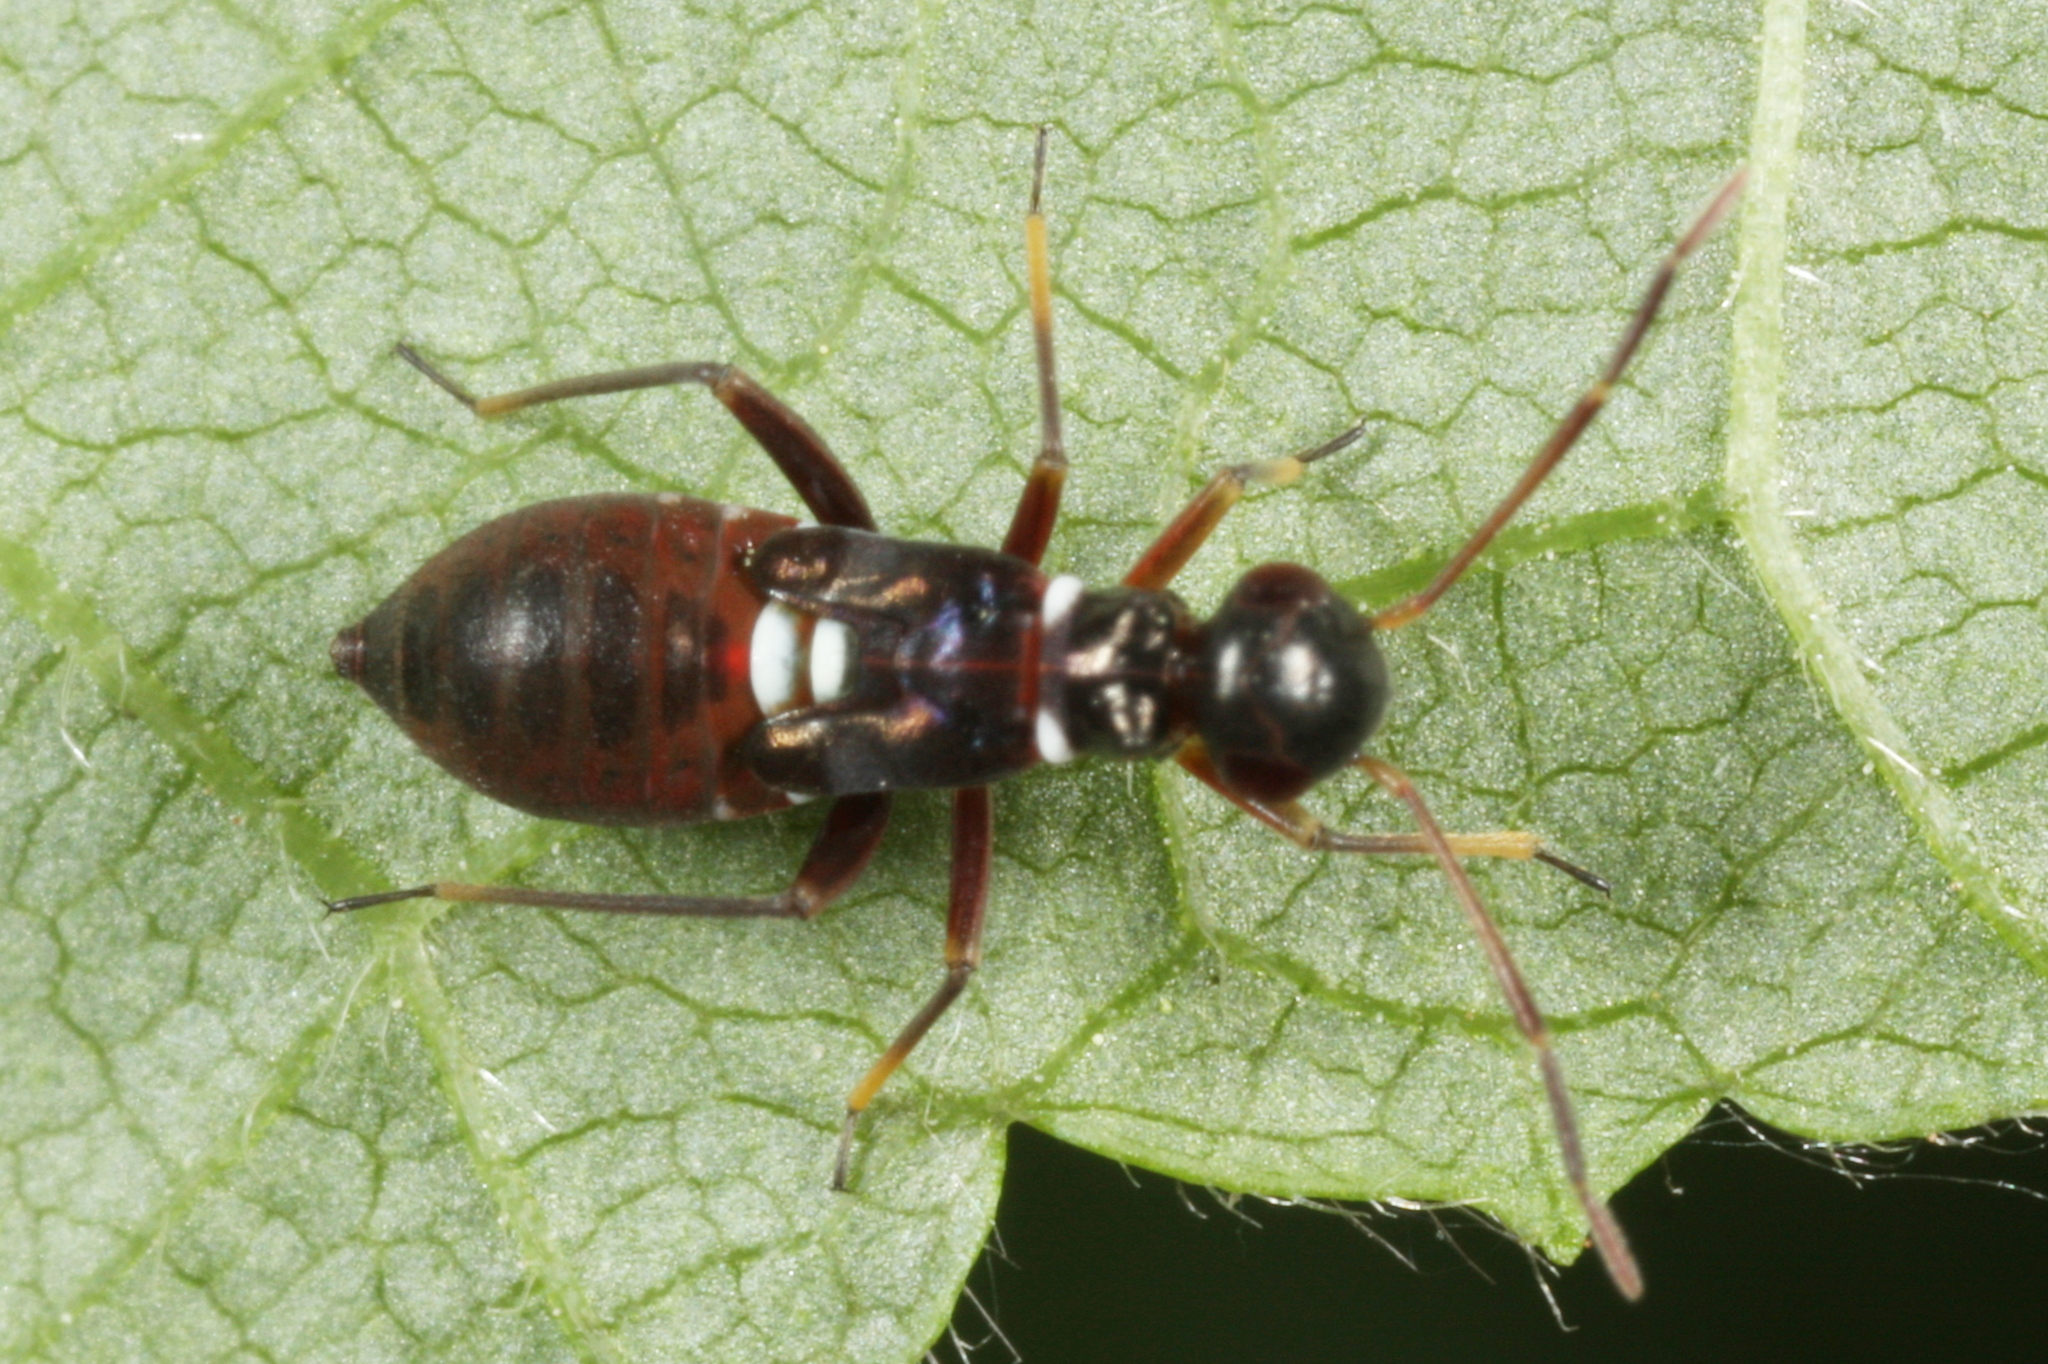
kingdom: Animalia
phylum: Arthropoda
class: Insecta
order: Hemiptera
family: Miridae
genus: Globiceps
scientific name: Globiceps sphaegiformis
